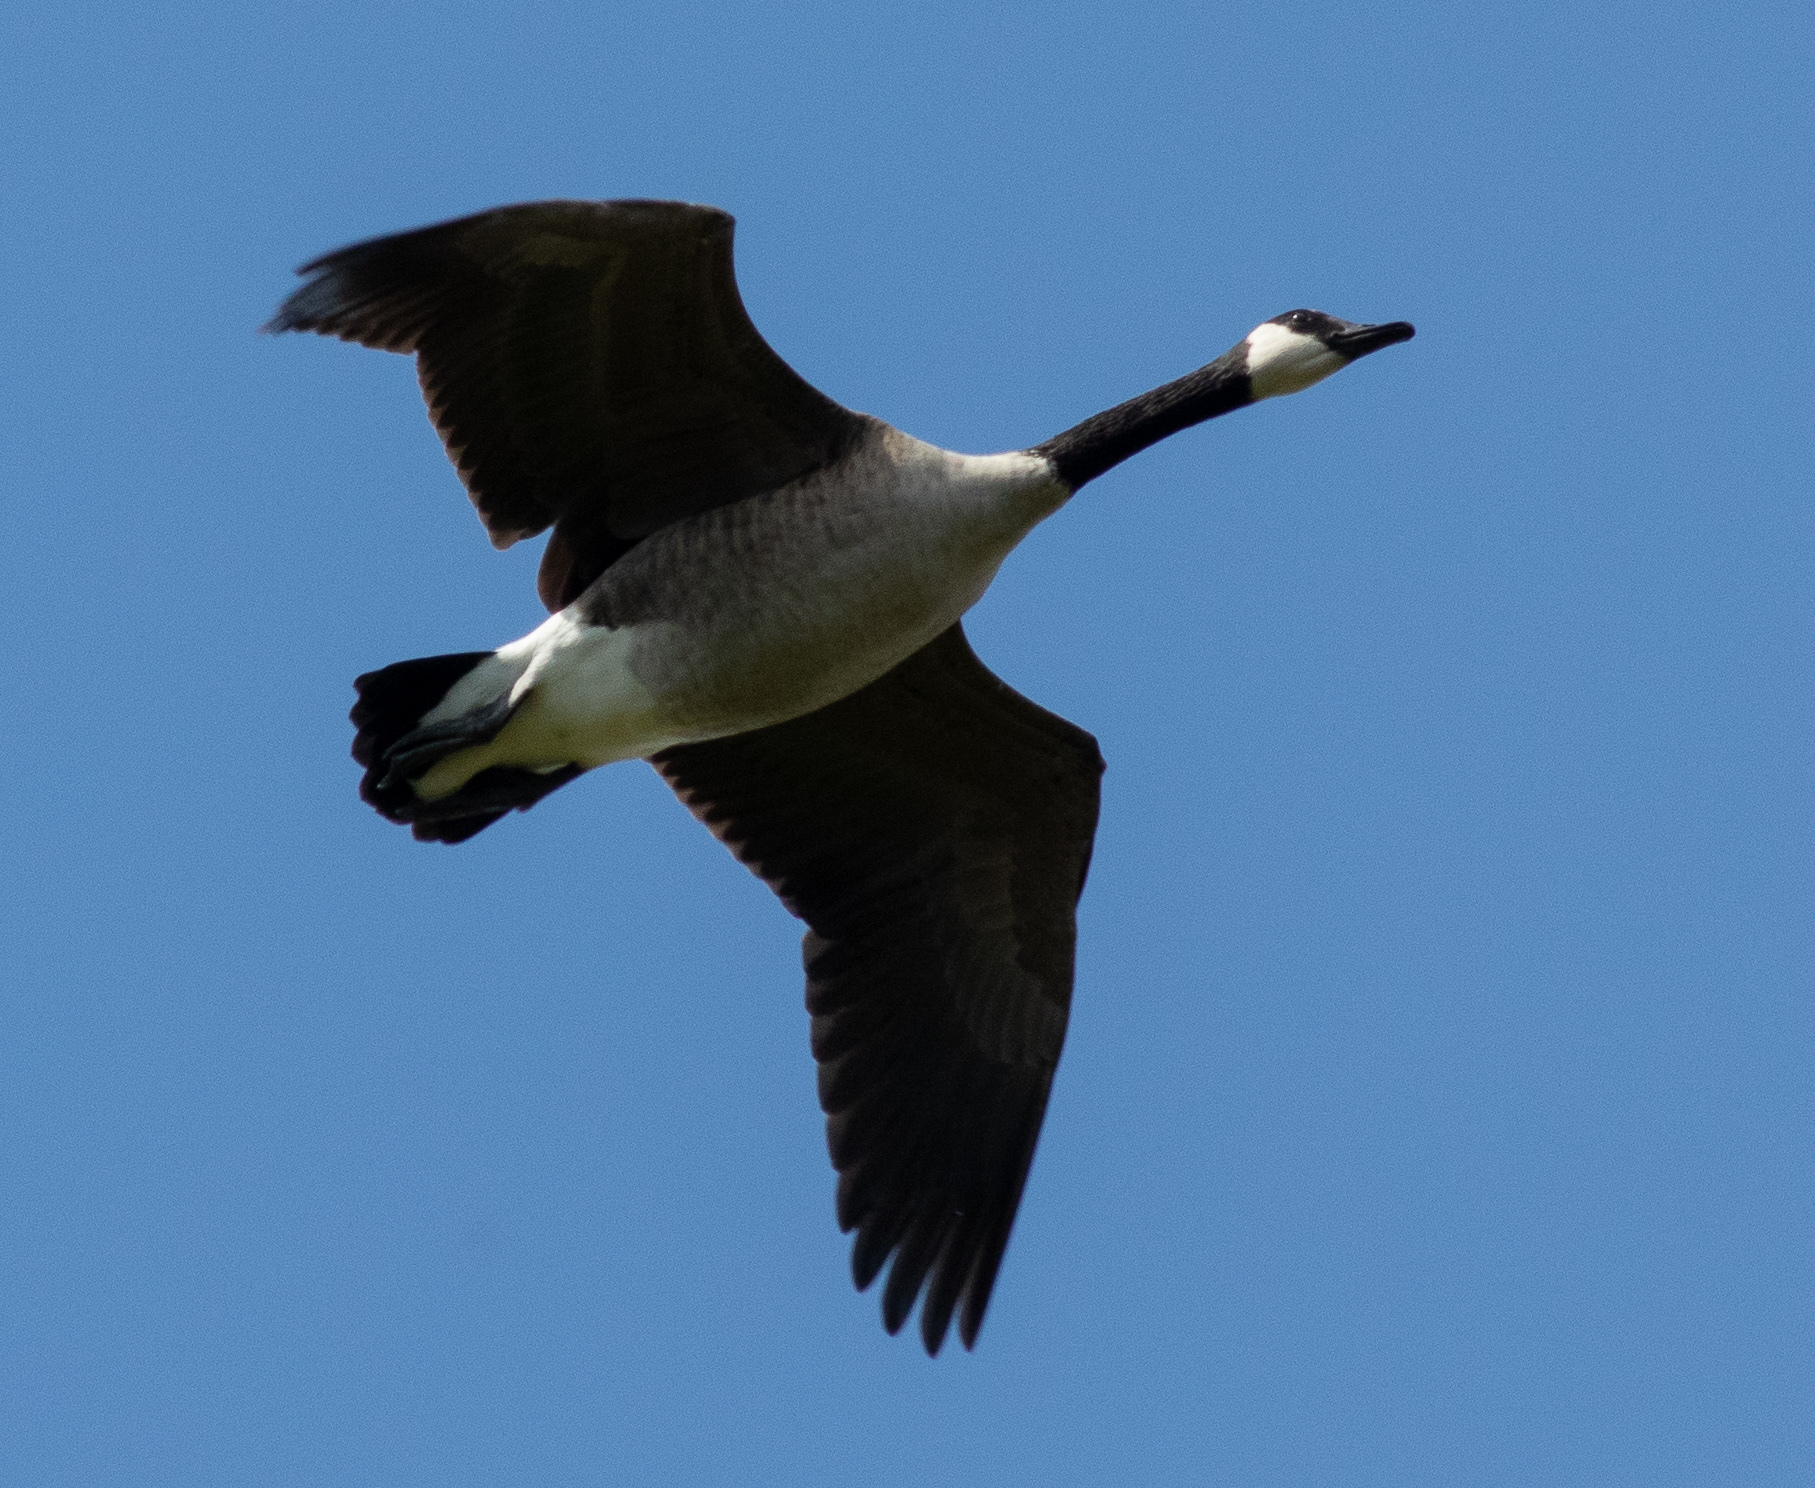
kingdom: Animalia
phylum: Chordata
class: Aves
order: Anseriformes
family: Anatidae
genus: Branta
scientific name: Branta canadensis
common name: Canada goose
